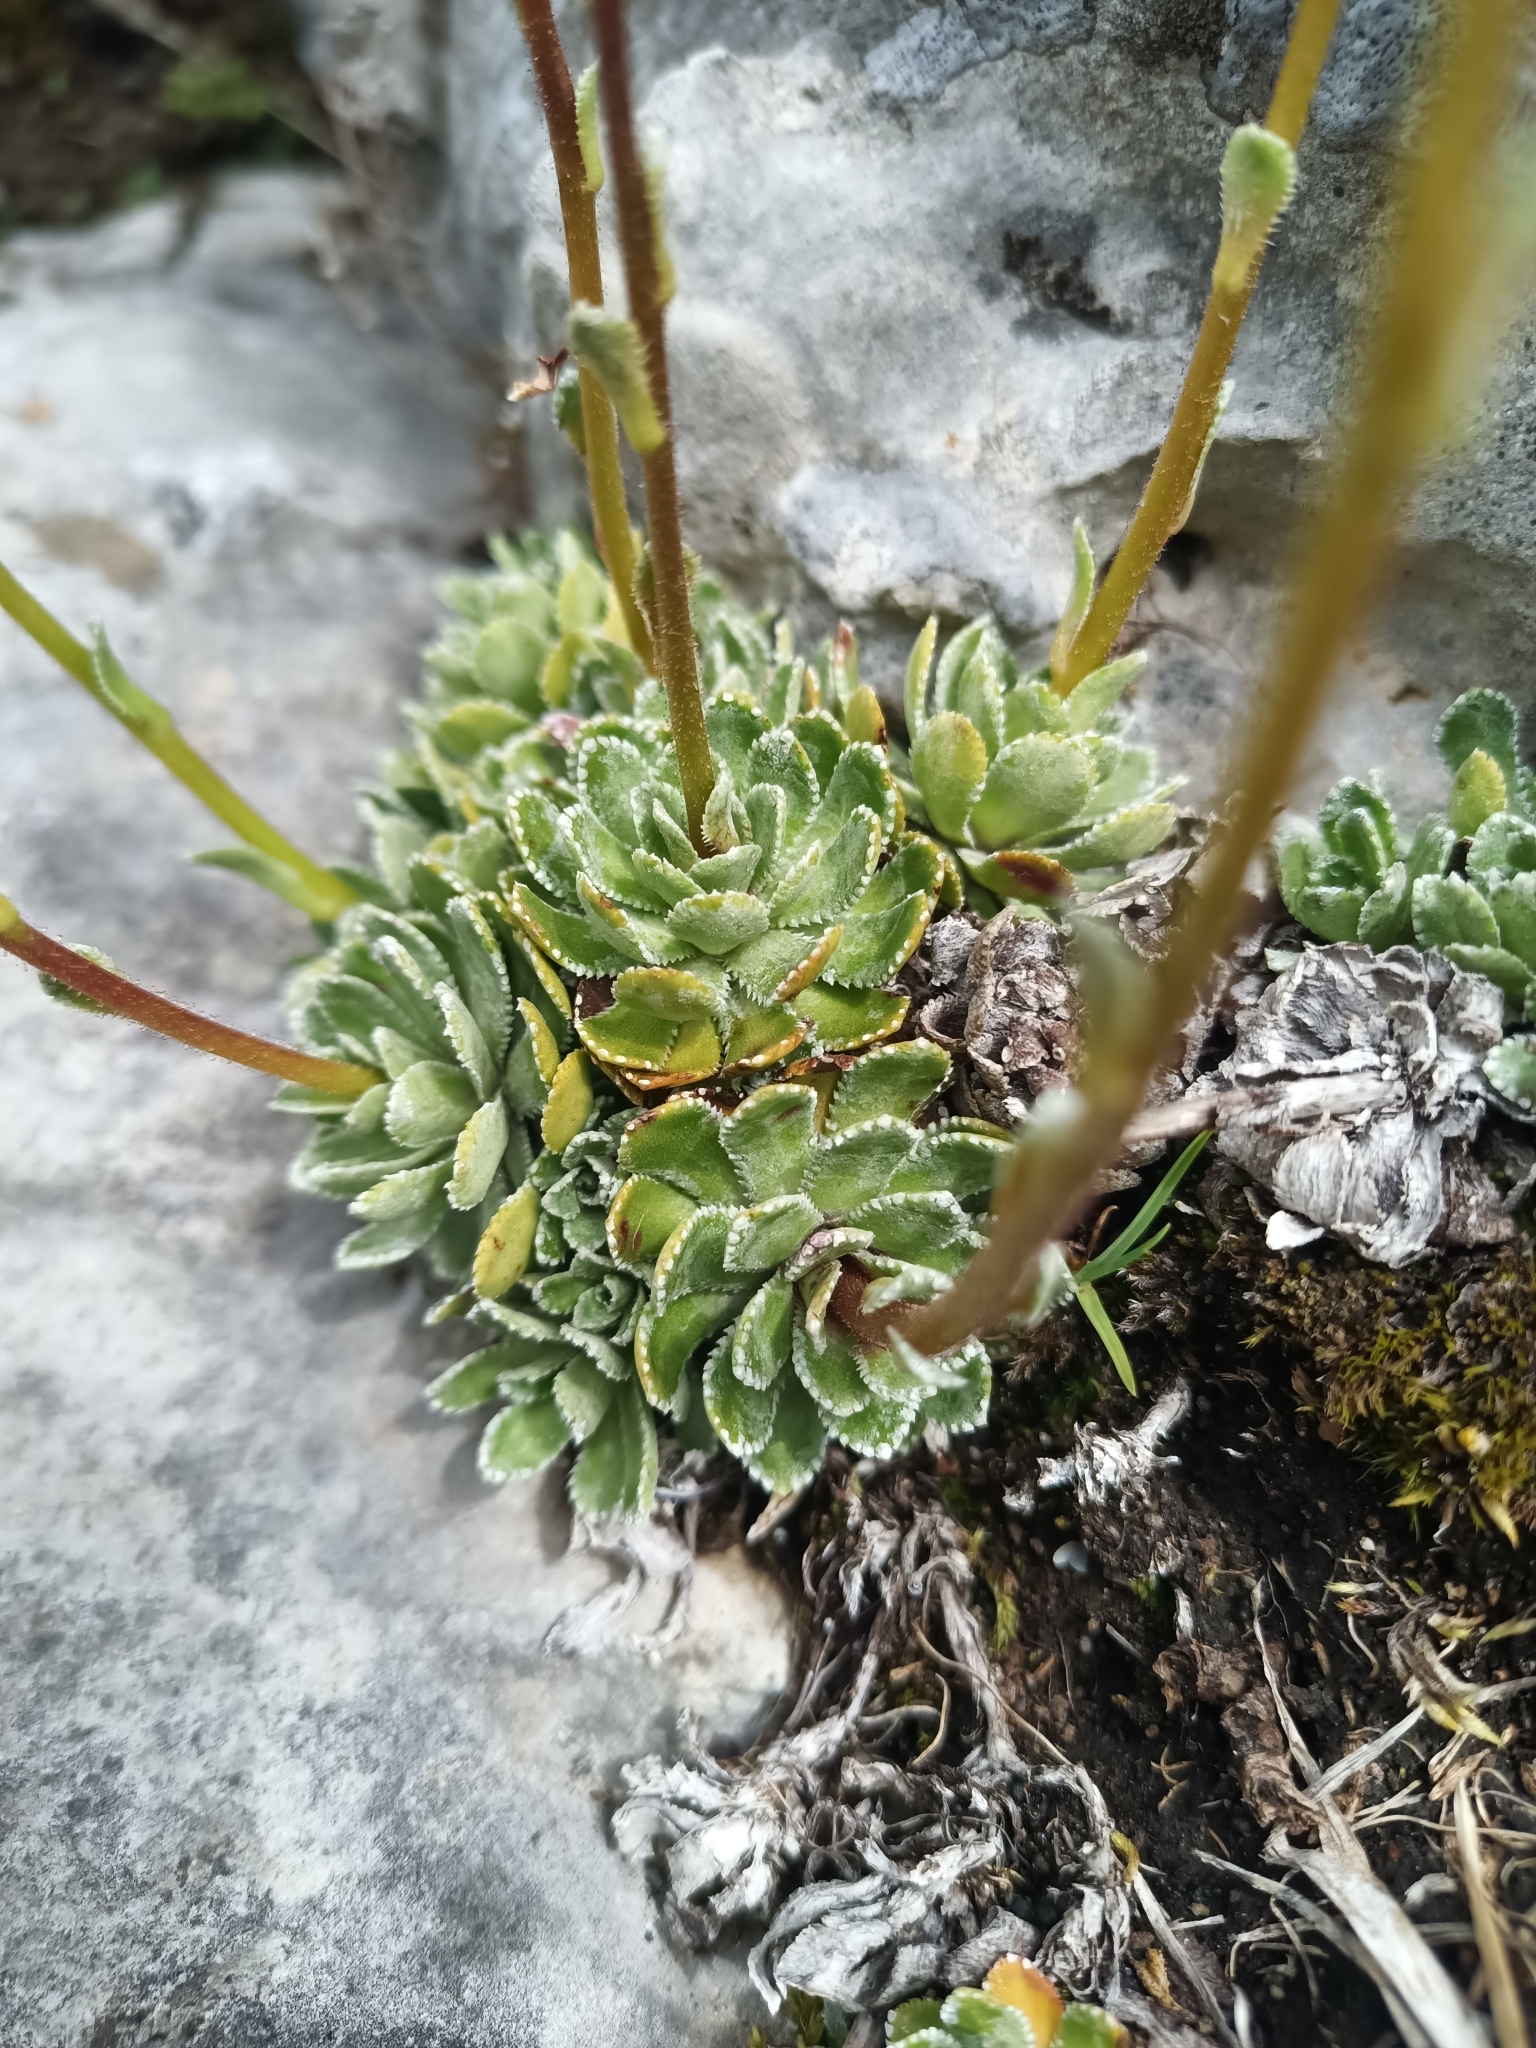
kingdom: Plantae
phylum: Tracheophyta
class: Magnoliopsida
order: Saxifragales
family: Saxifragaceae
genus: Saxifraga
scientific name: Saxifraga paniculata
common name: Livelong saxifrage
